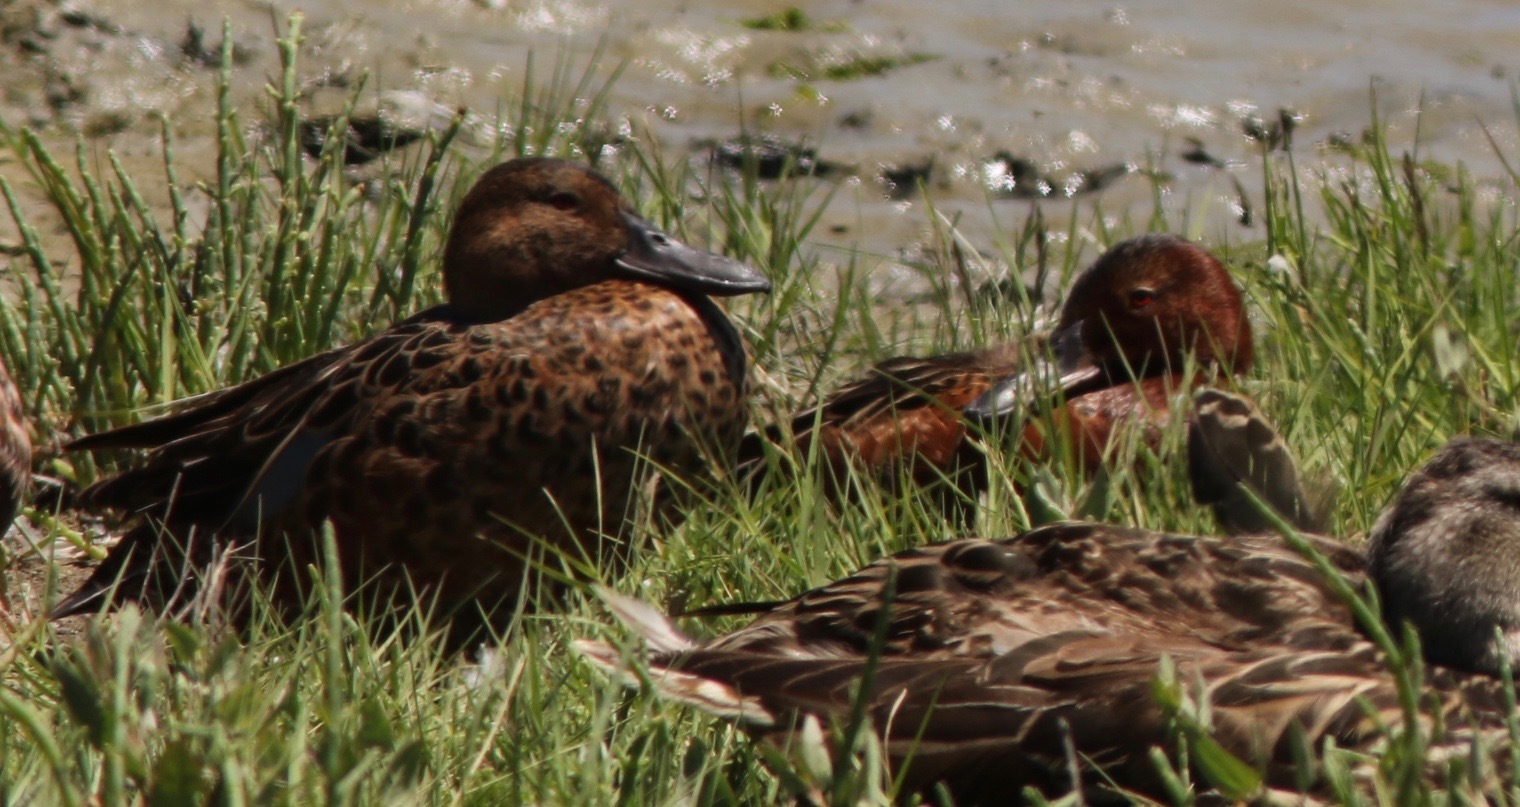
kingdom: Animalia
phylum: Chordata
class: Aves
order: Anseriformes
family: Anatidae
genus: Spatula
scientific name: Spatula cyanoptera
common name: Cinnamon teal
